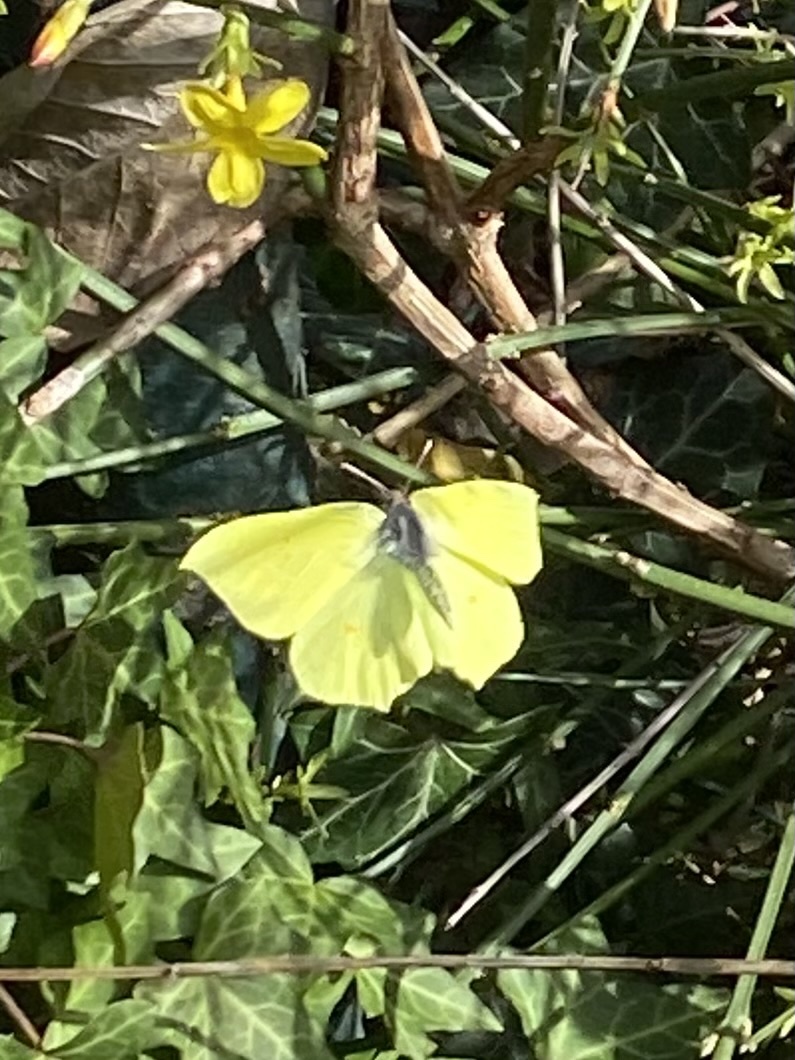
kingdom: Animalia
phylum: Arthropoda
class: Insecta
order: Lepidoptera
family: Pieridae
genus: Gonepteryx
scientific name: Gonepteryx rhamni
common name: Brimstone
